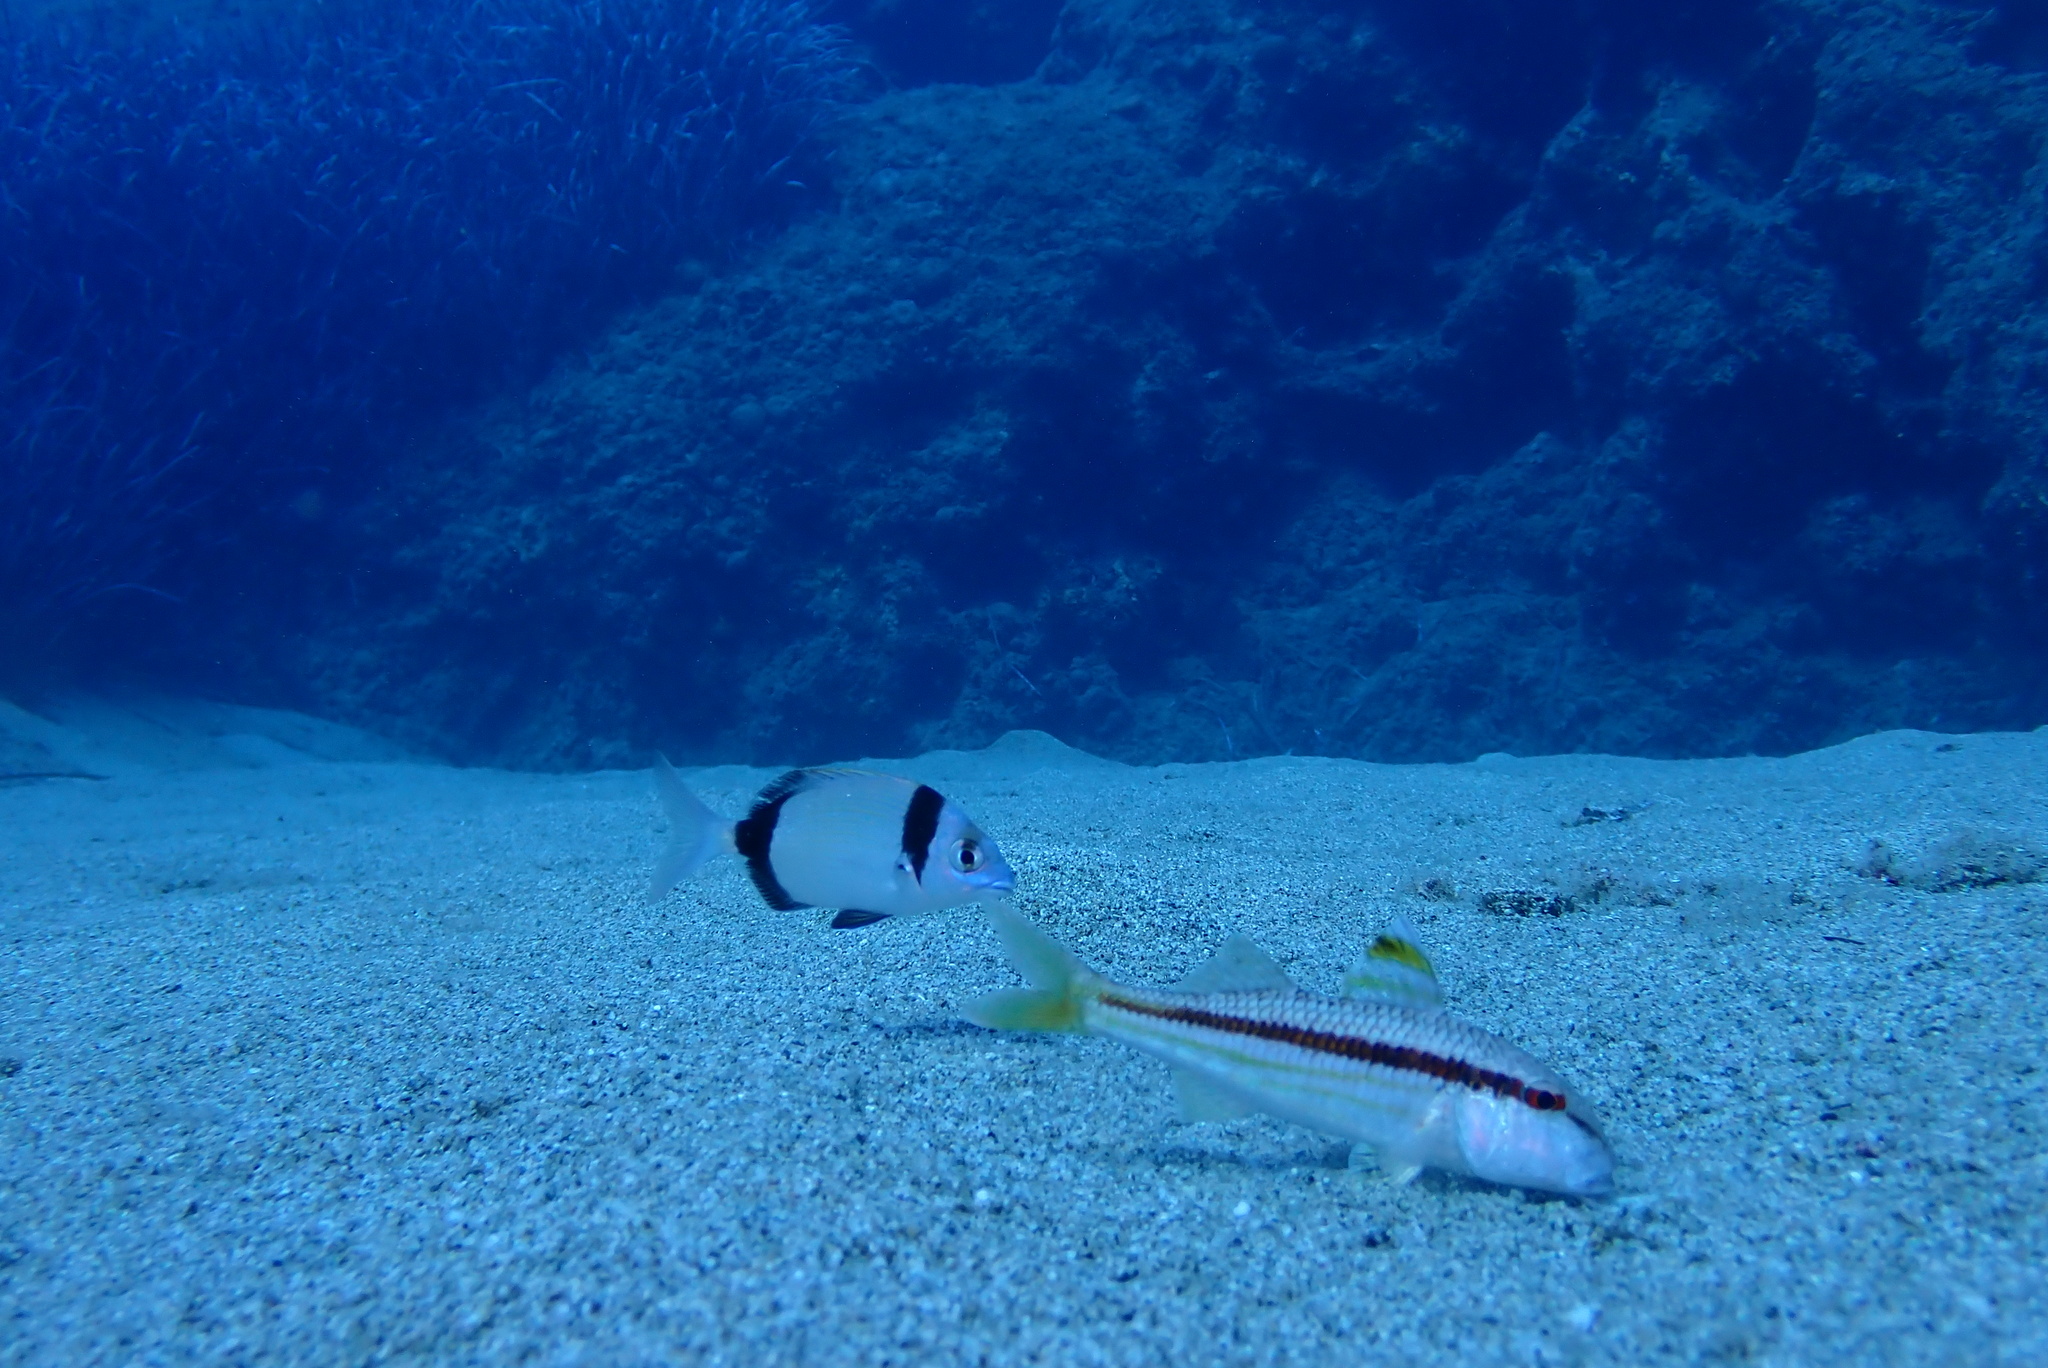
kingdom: Animalia
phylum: Chordata
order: Perciformes
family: Mullidae
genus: Mullus
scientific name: Mullus surmuletus
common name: Red mullet
